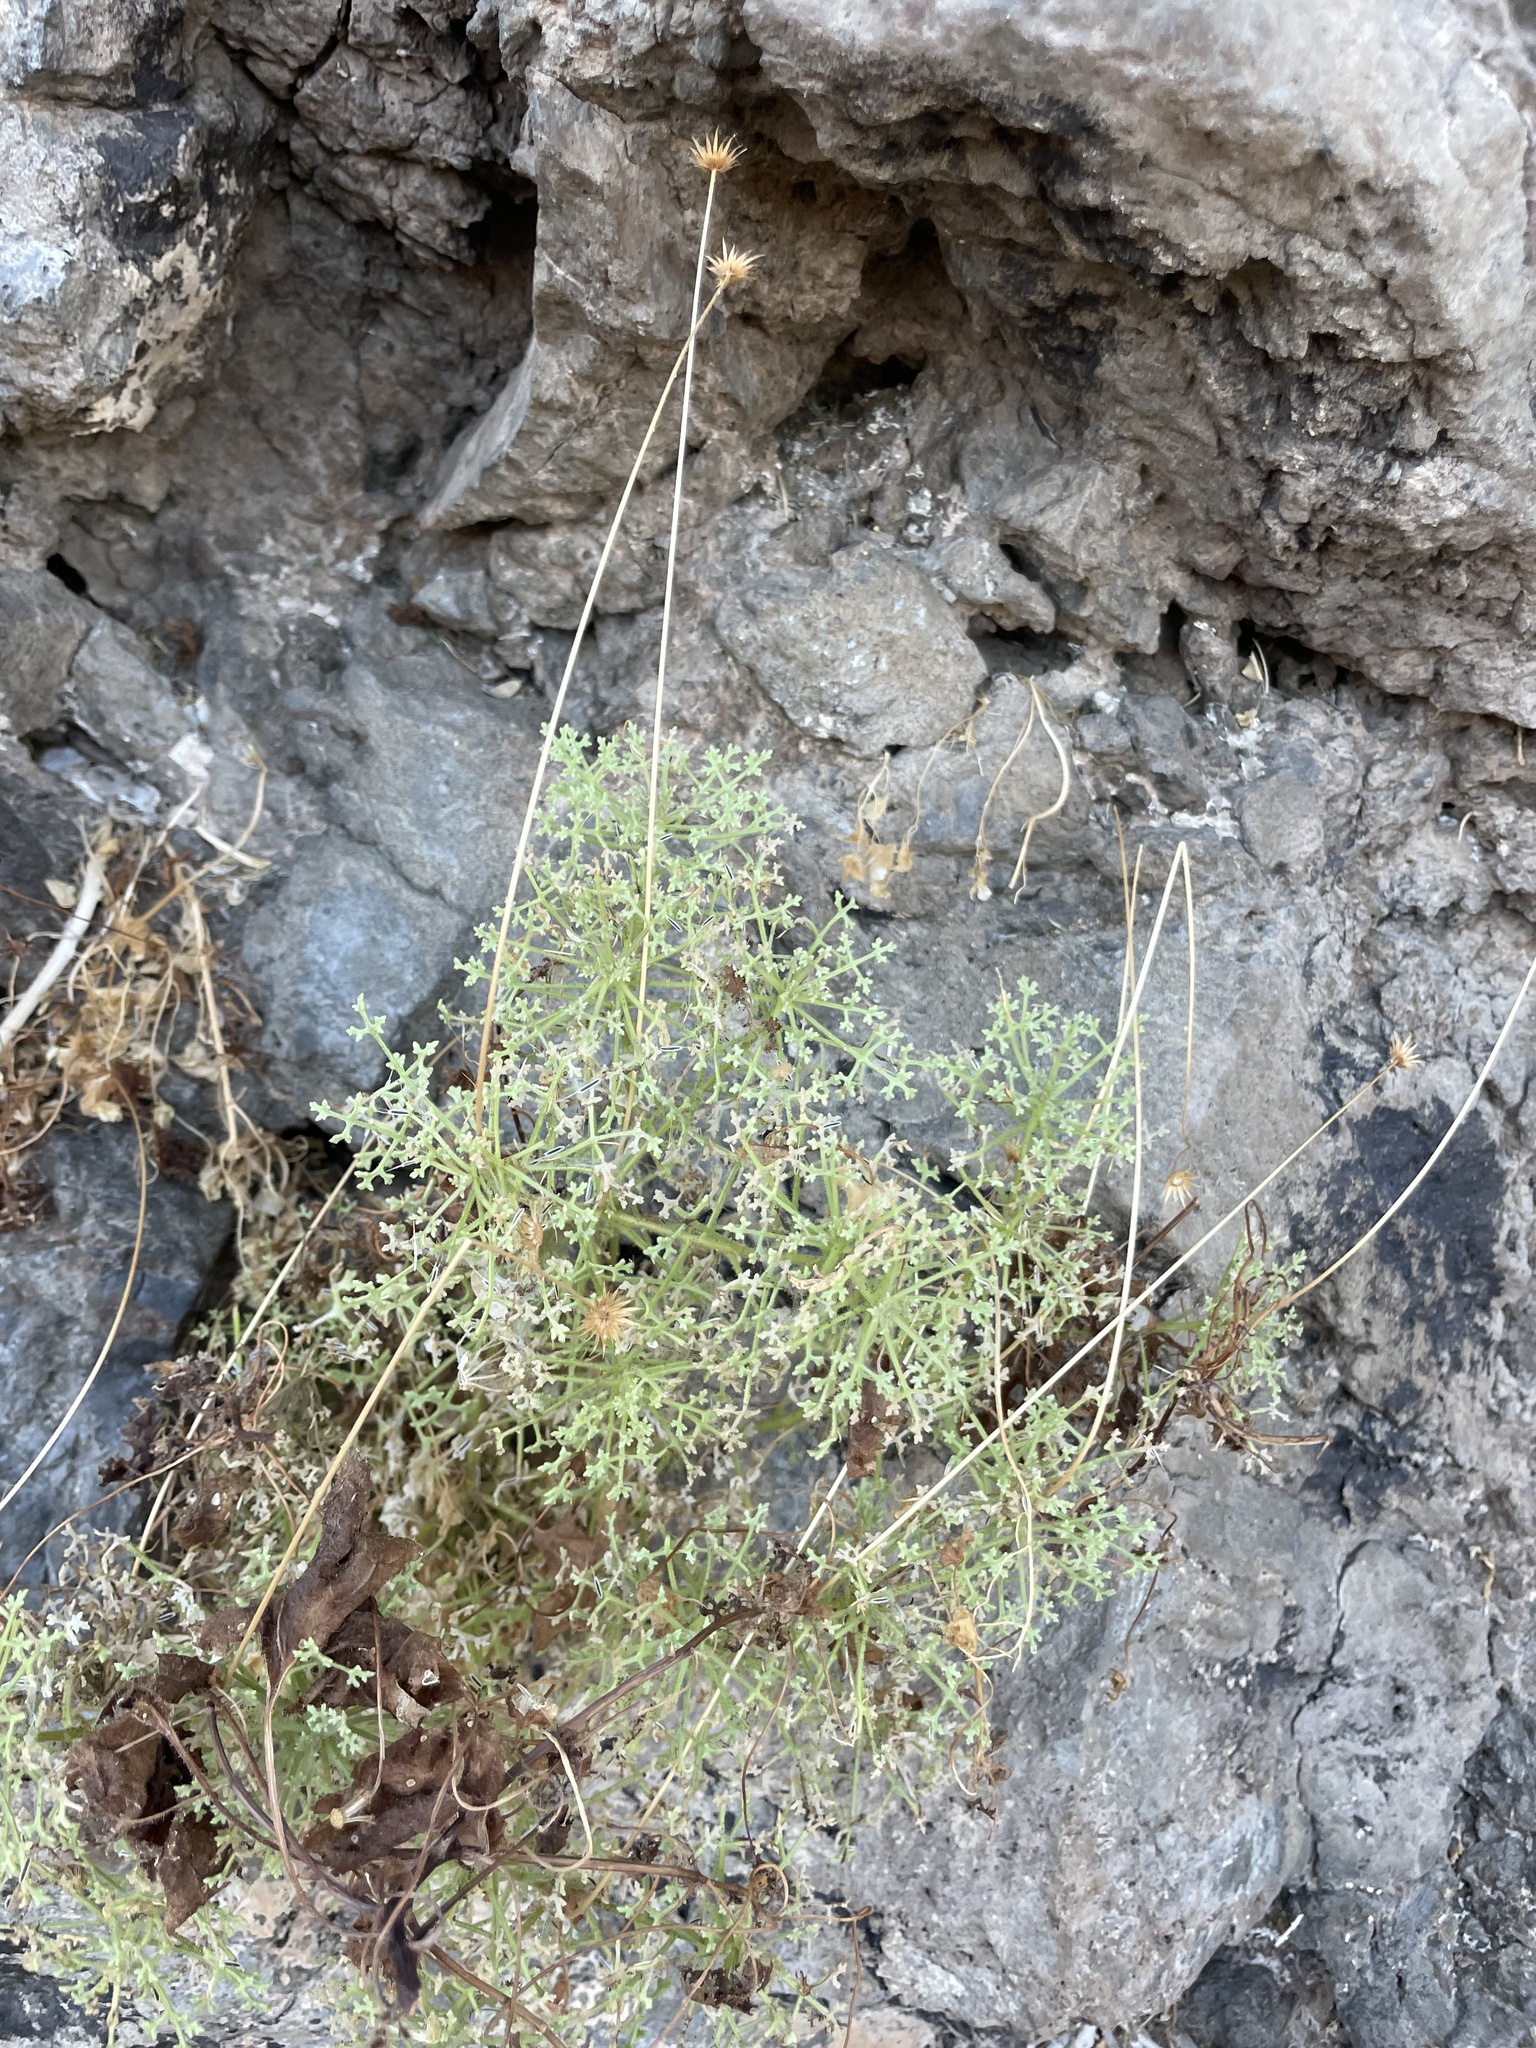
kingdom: Plantae
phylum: Tracheophyta
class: Magnoliopsida
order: Asterales
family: Asteraceae
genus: Hofmeisteria
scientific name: Hofmeisteria fasciculata
